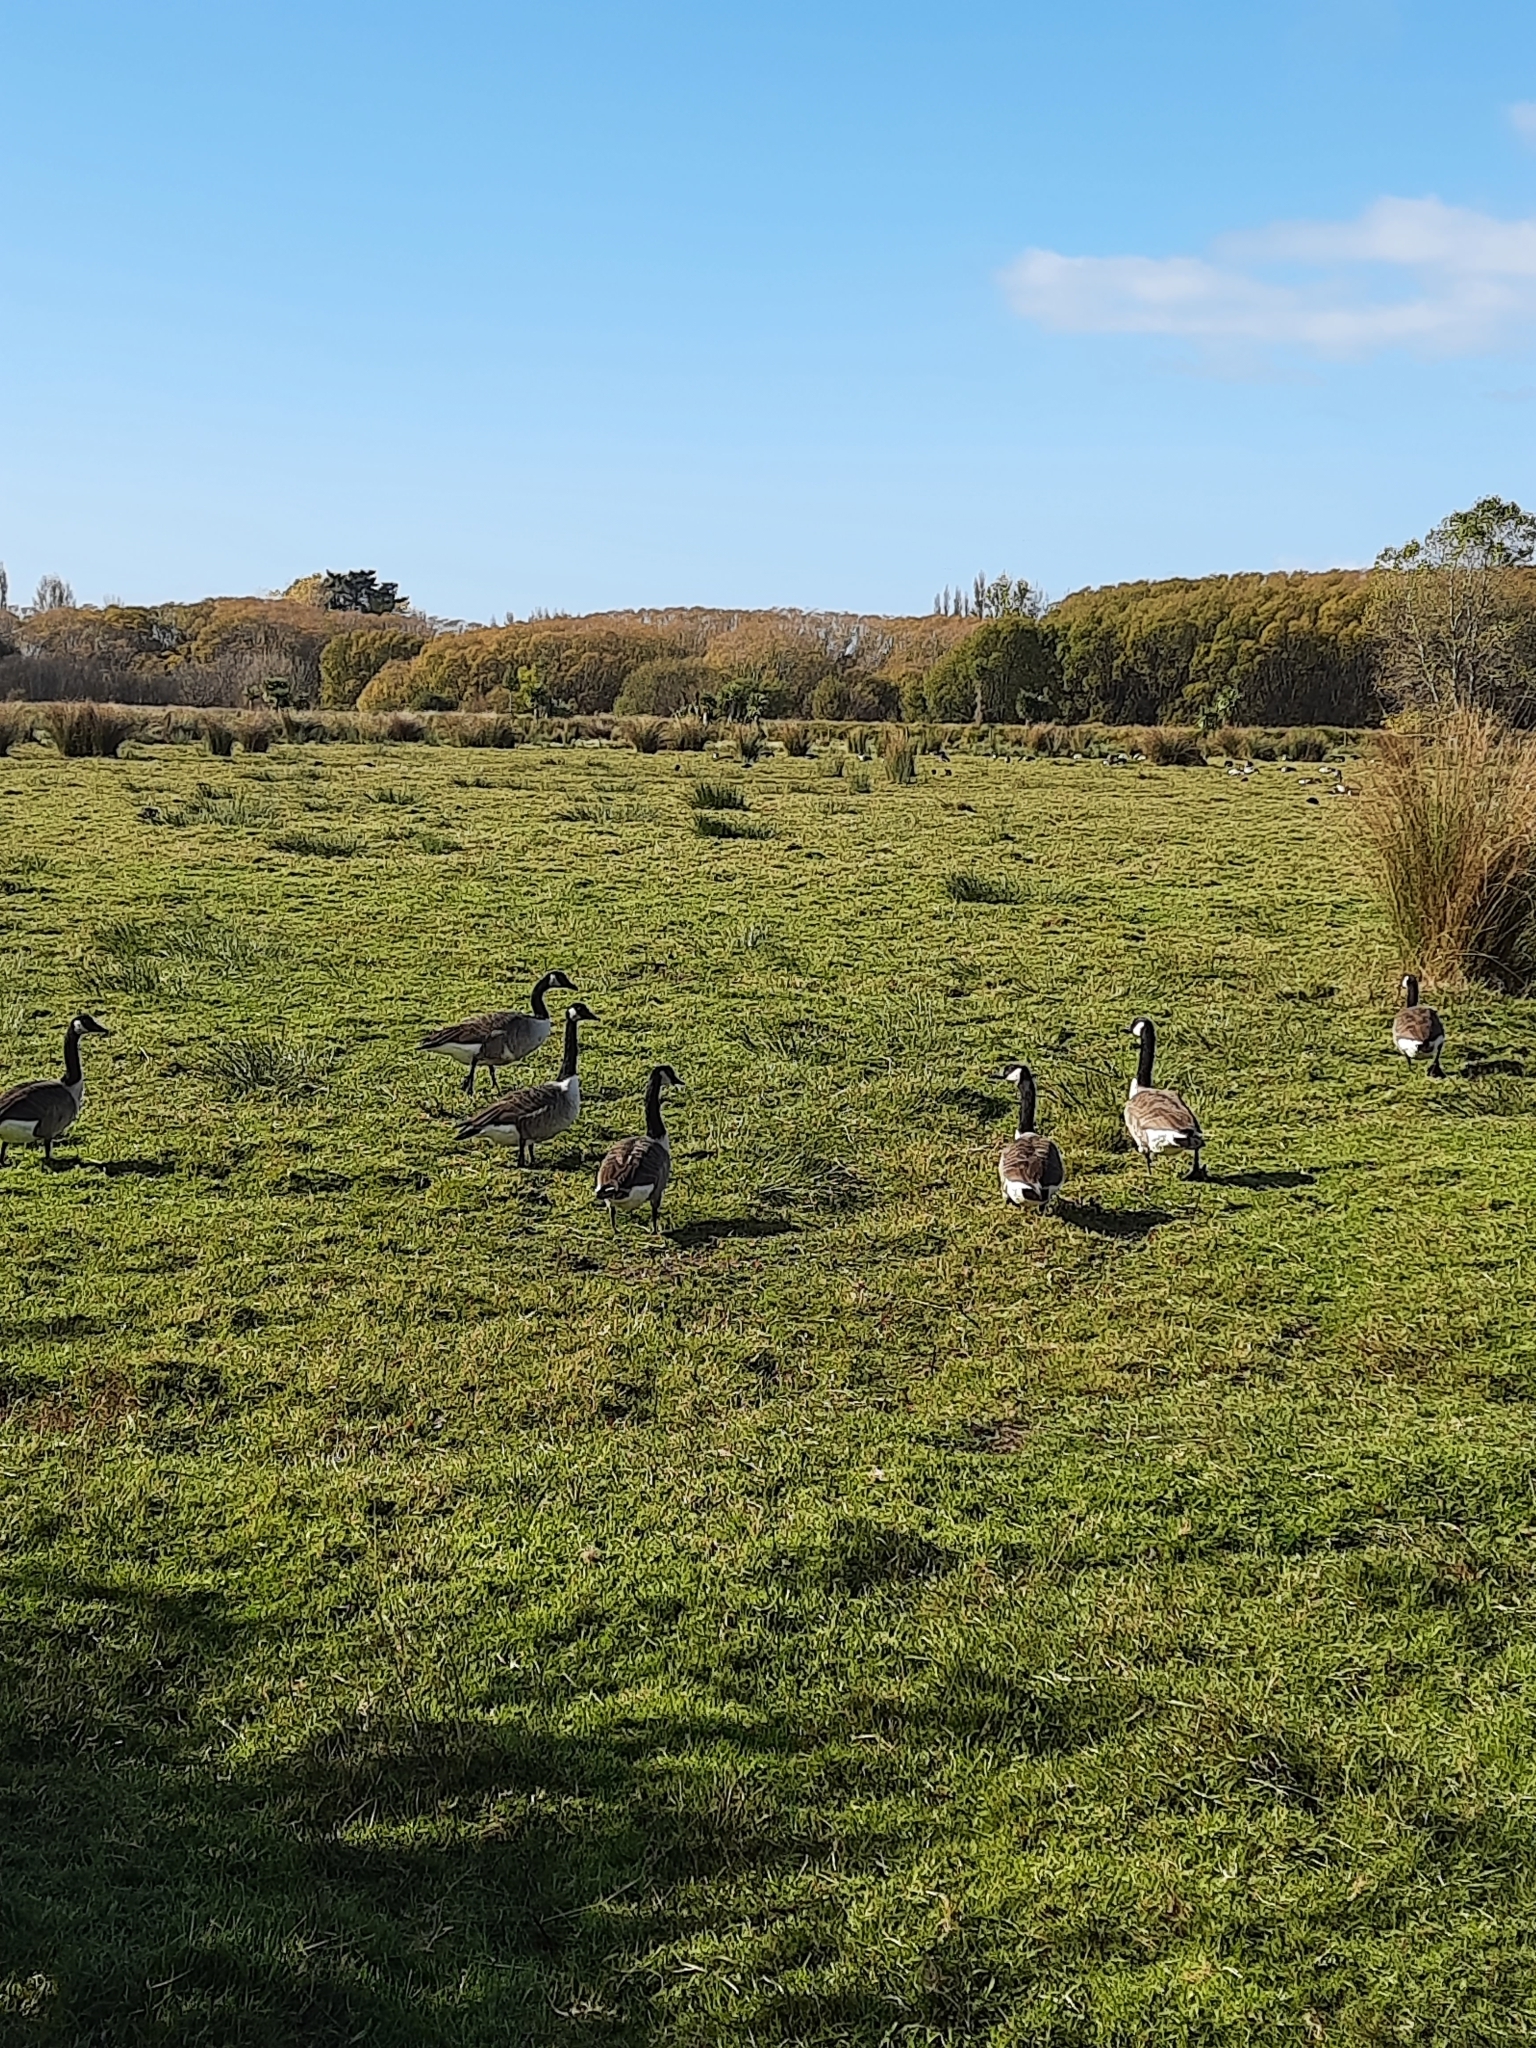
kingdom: Animalia
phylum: Chordata
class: Aves
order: Anseriformes
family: Anatidae
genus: Branta
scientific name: Branta canadensis
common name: Canada goose
